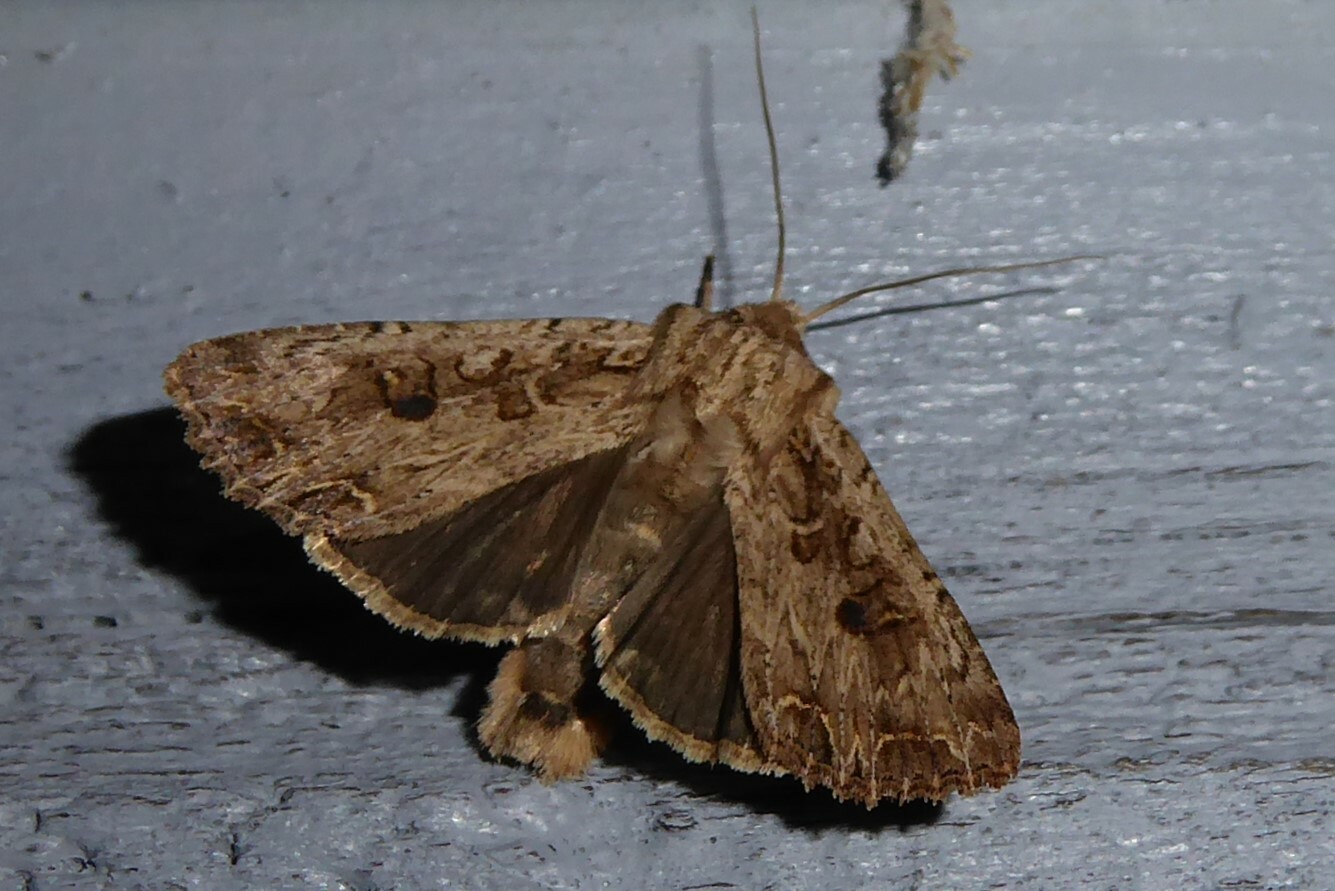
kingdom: Animalia
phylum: Arthropoda
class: Insecta
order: Lepidoptera
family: Noctuidae
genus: Ichneutica
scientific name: Ichneutica lignana
